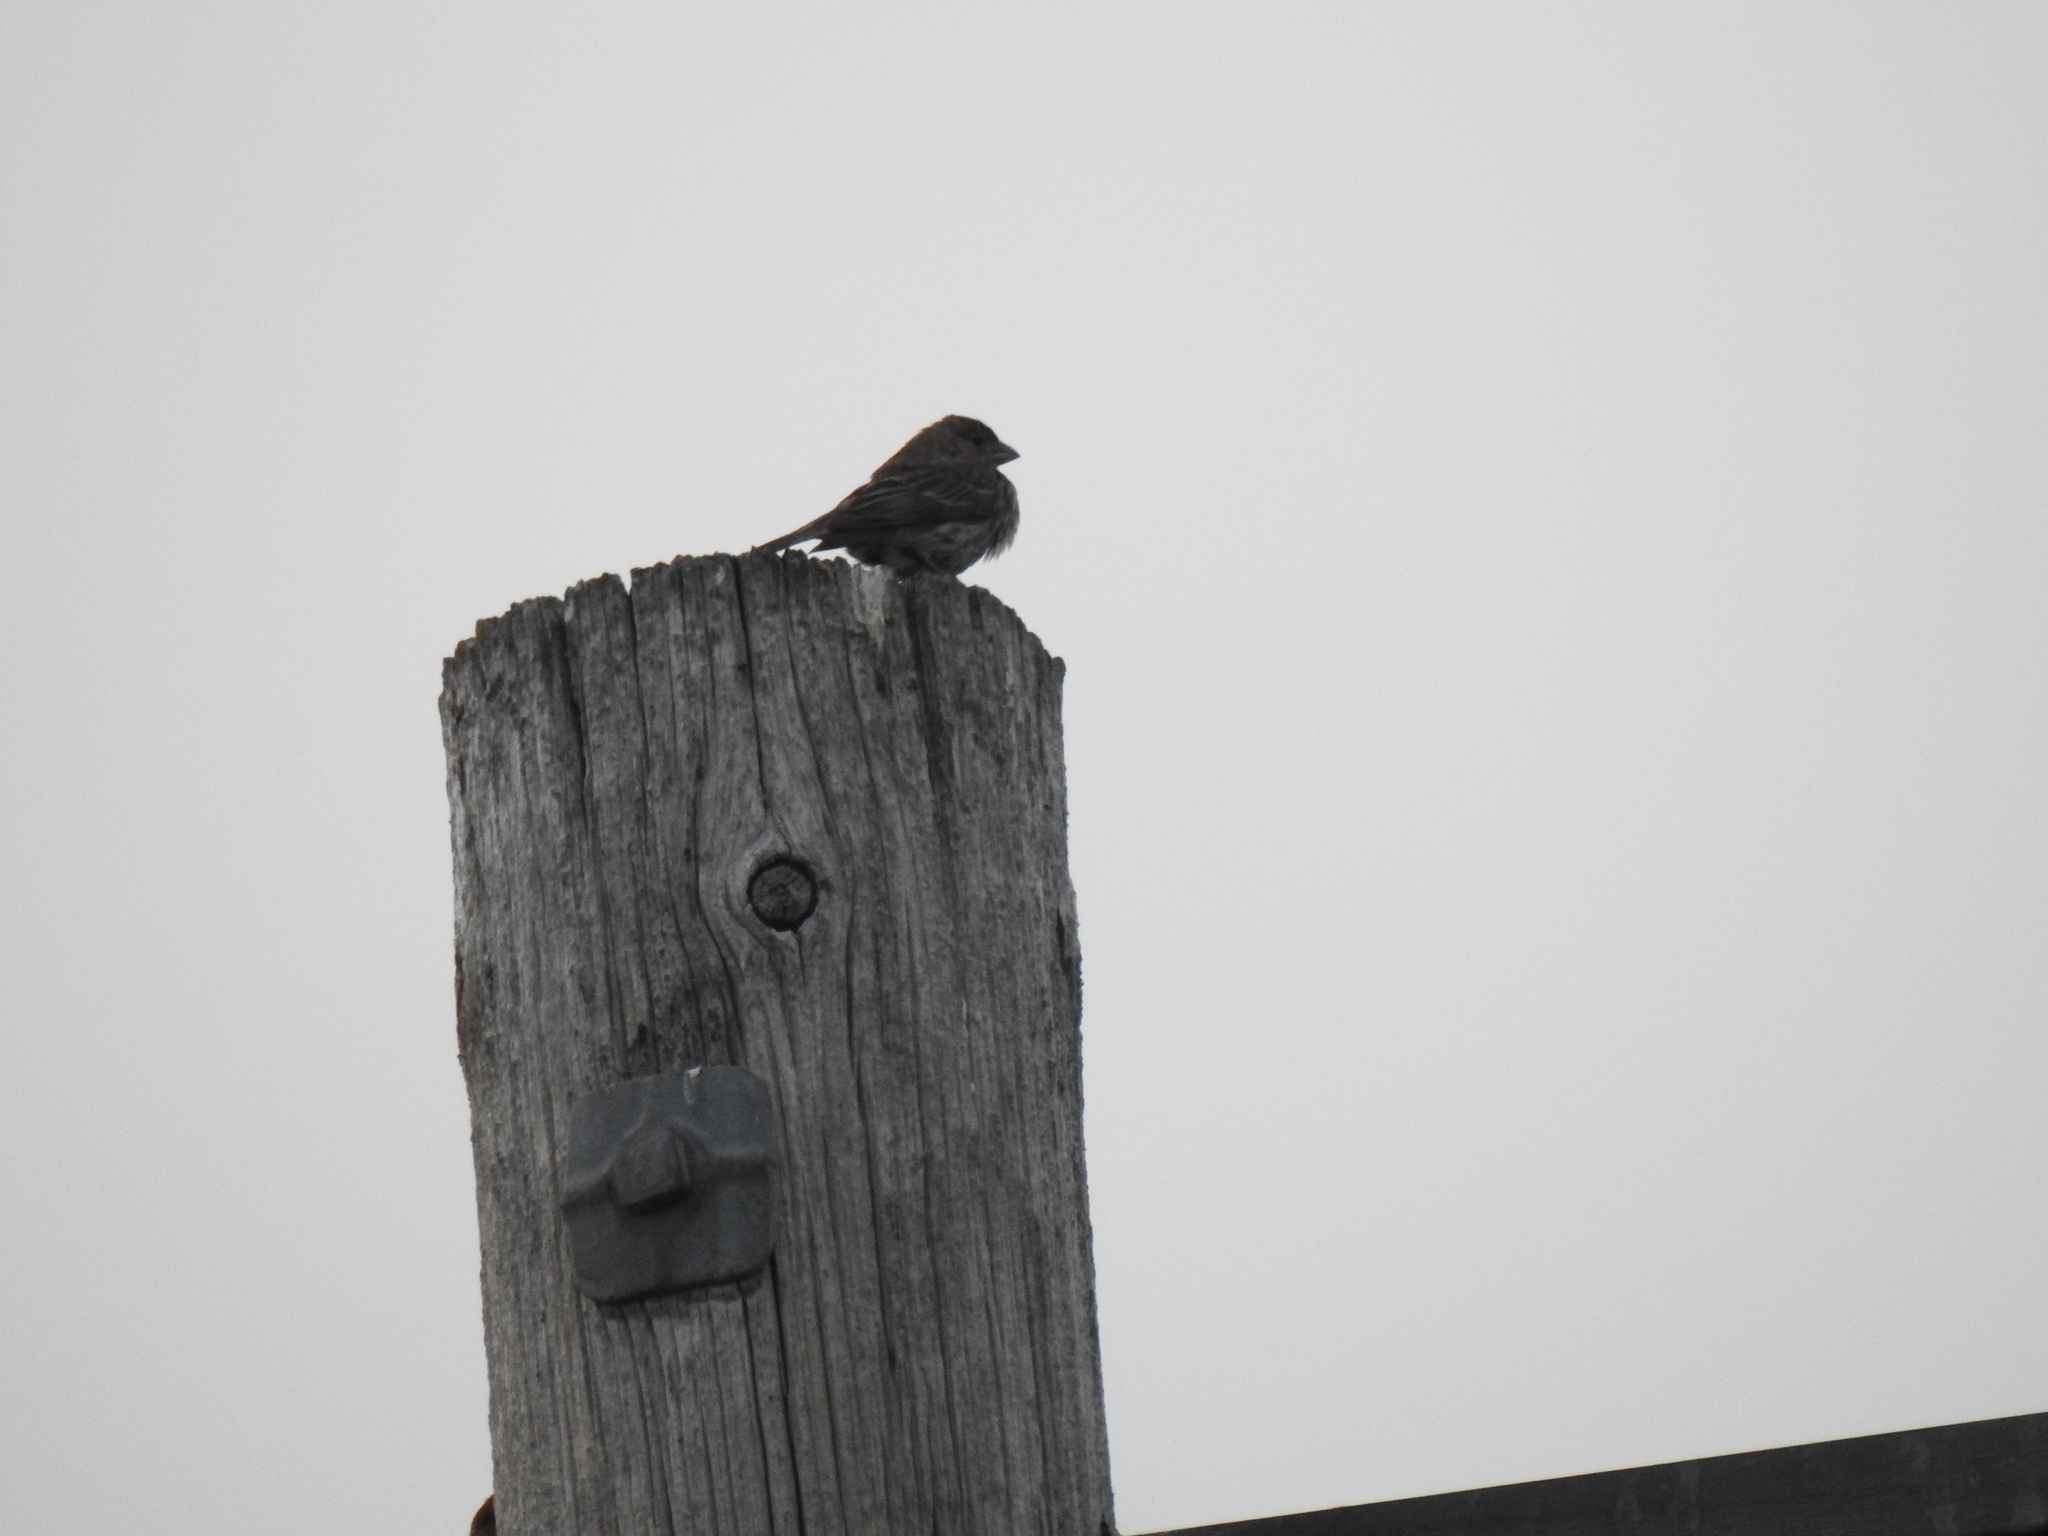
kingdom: Animalia
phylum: Chordata
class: Aves
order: Passeriformes
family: Fringillidae
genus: Haemorhous
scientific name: Haemorhous mexicanus
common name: House finch
